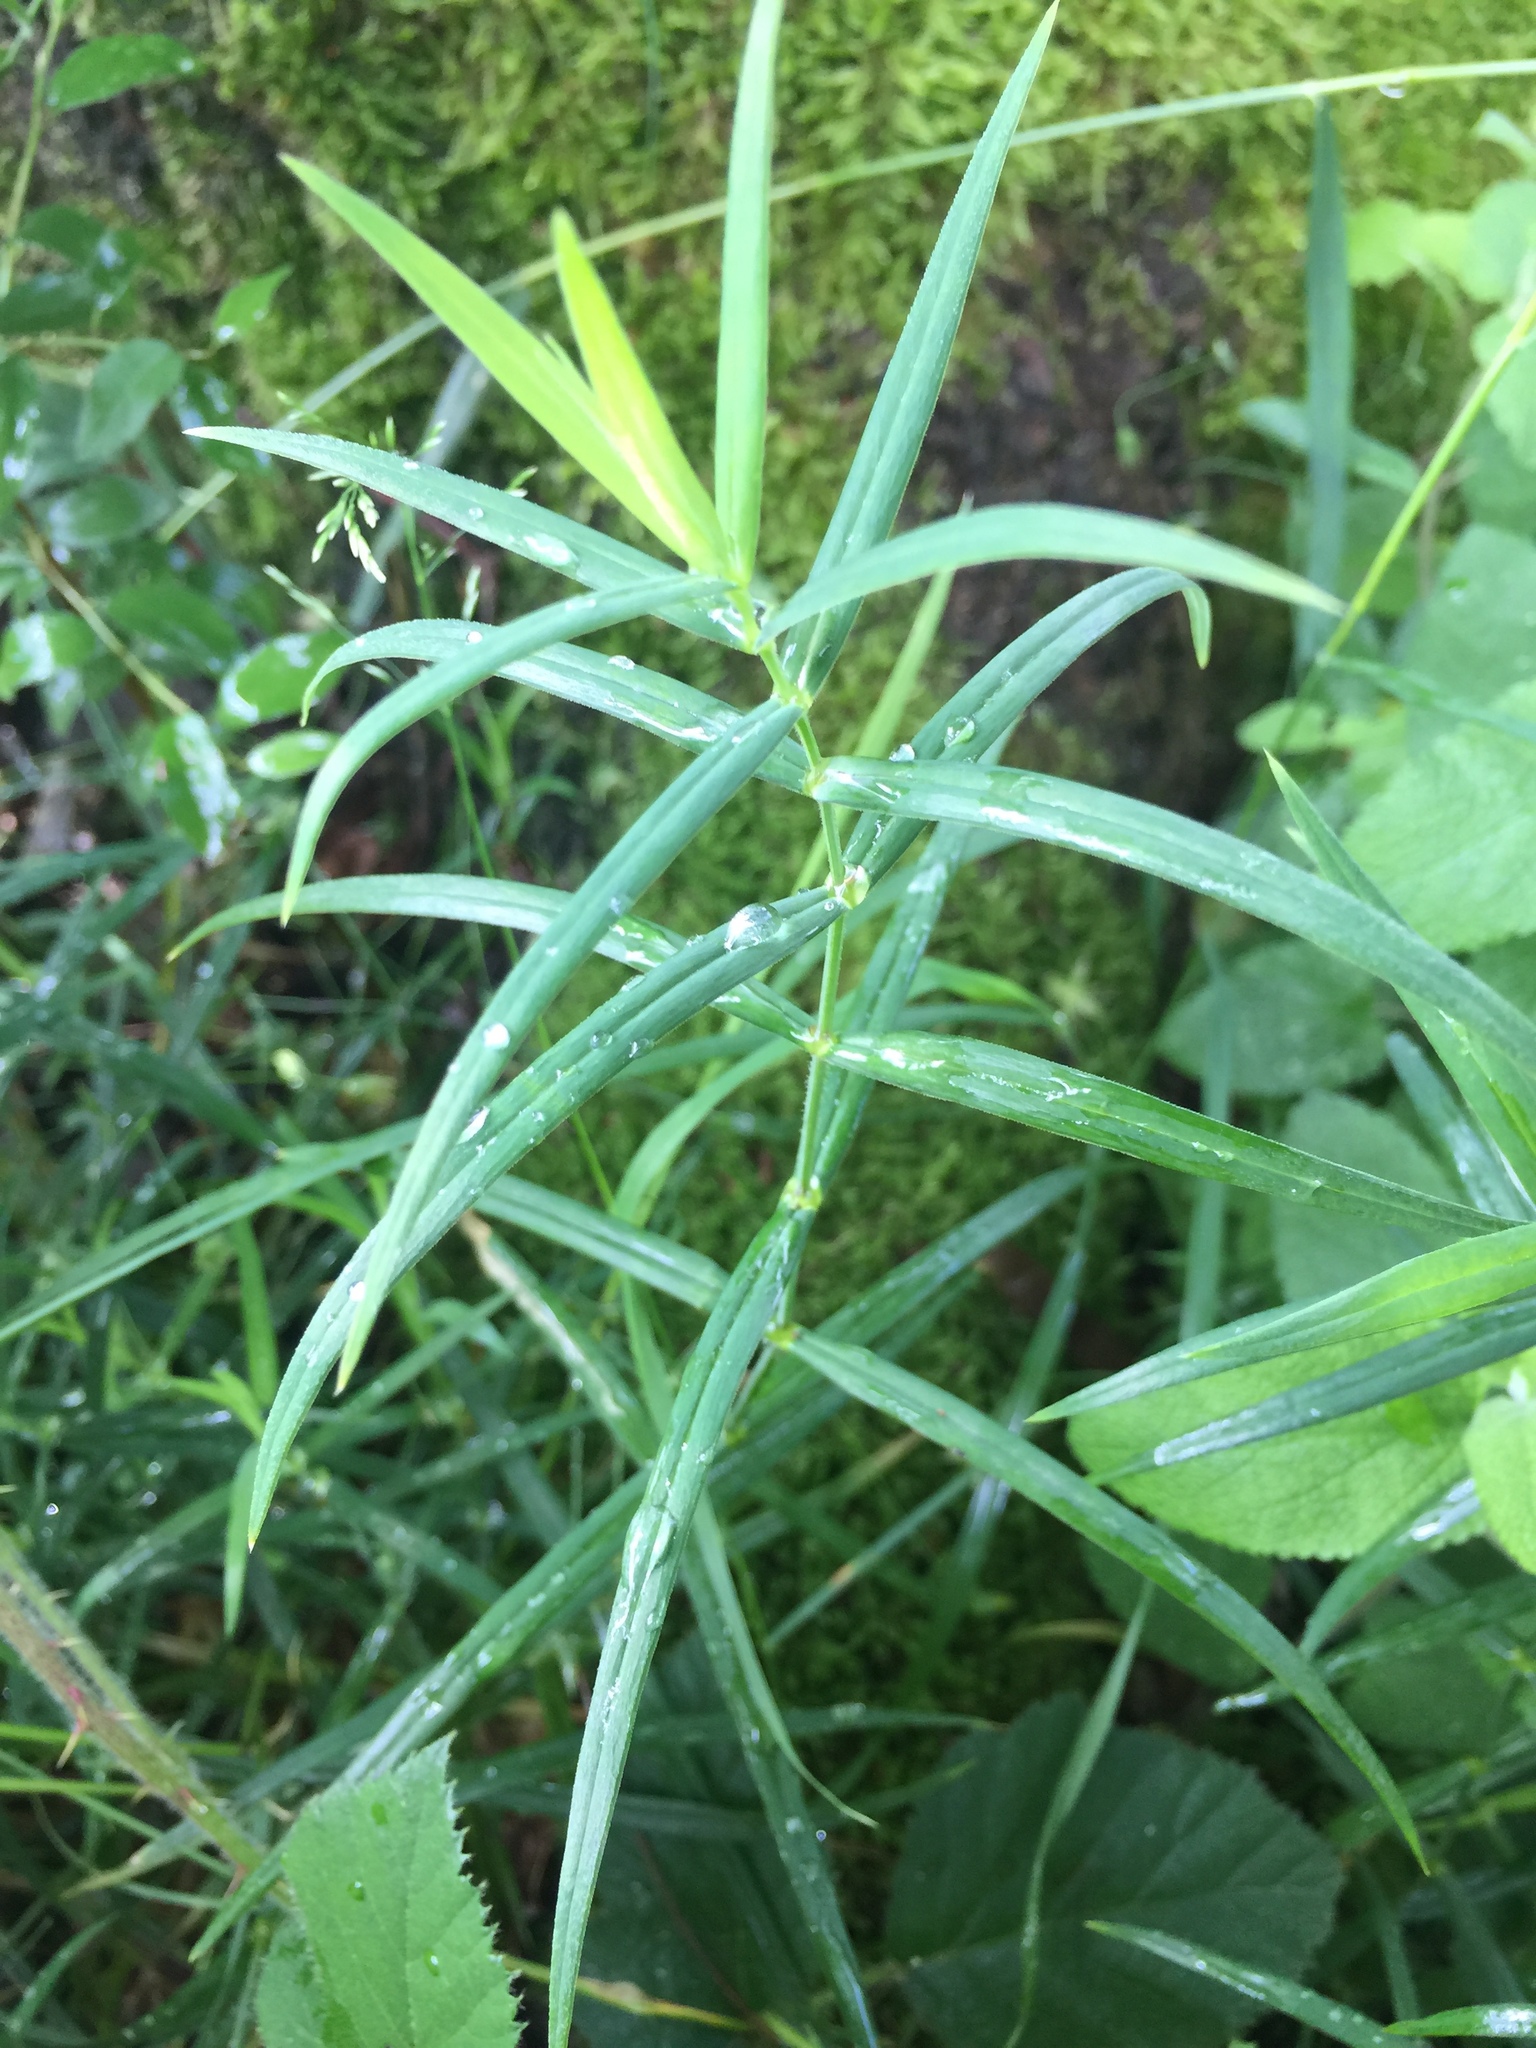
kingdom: Plantae
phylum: Tracheophyta
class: Magnoliopsida
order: Caryophyllales
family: Caryophyllaceae
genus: Rabelera
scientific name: Rabelera holostea
